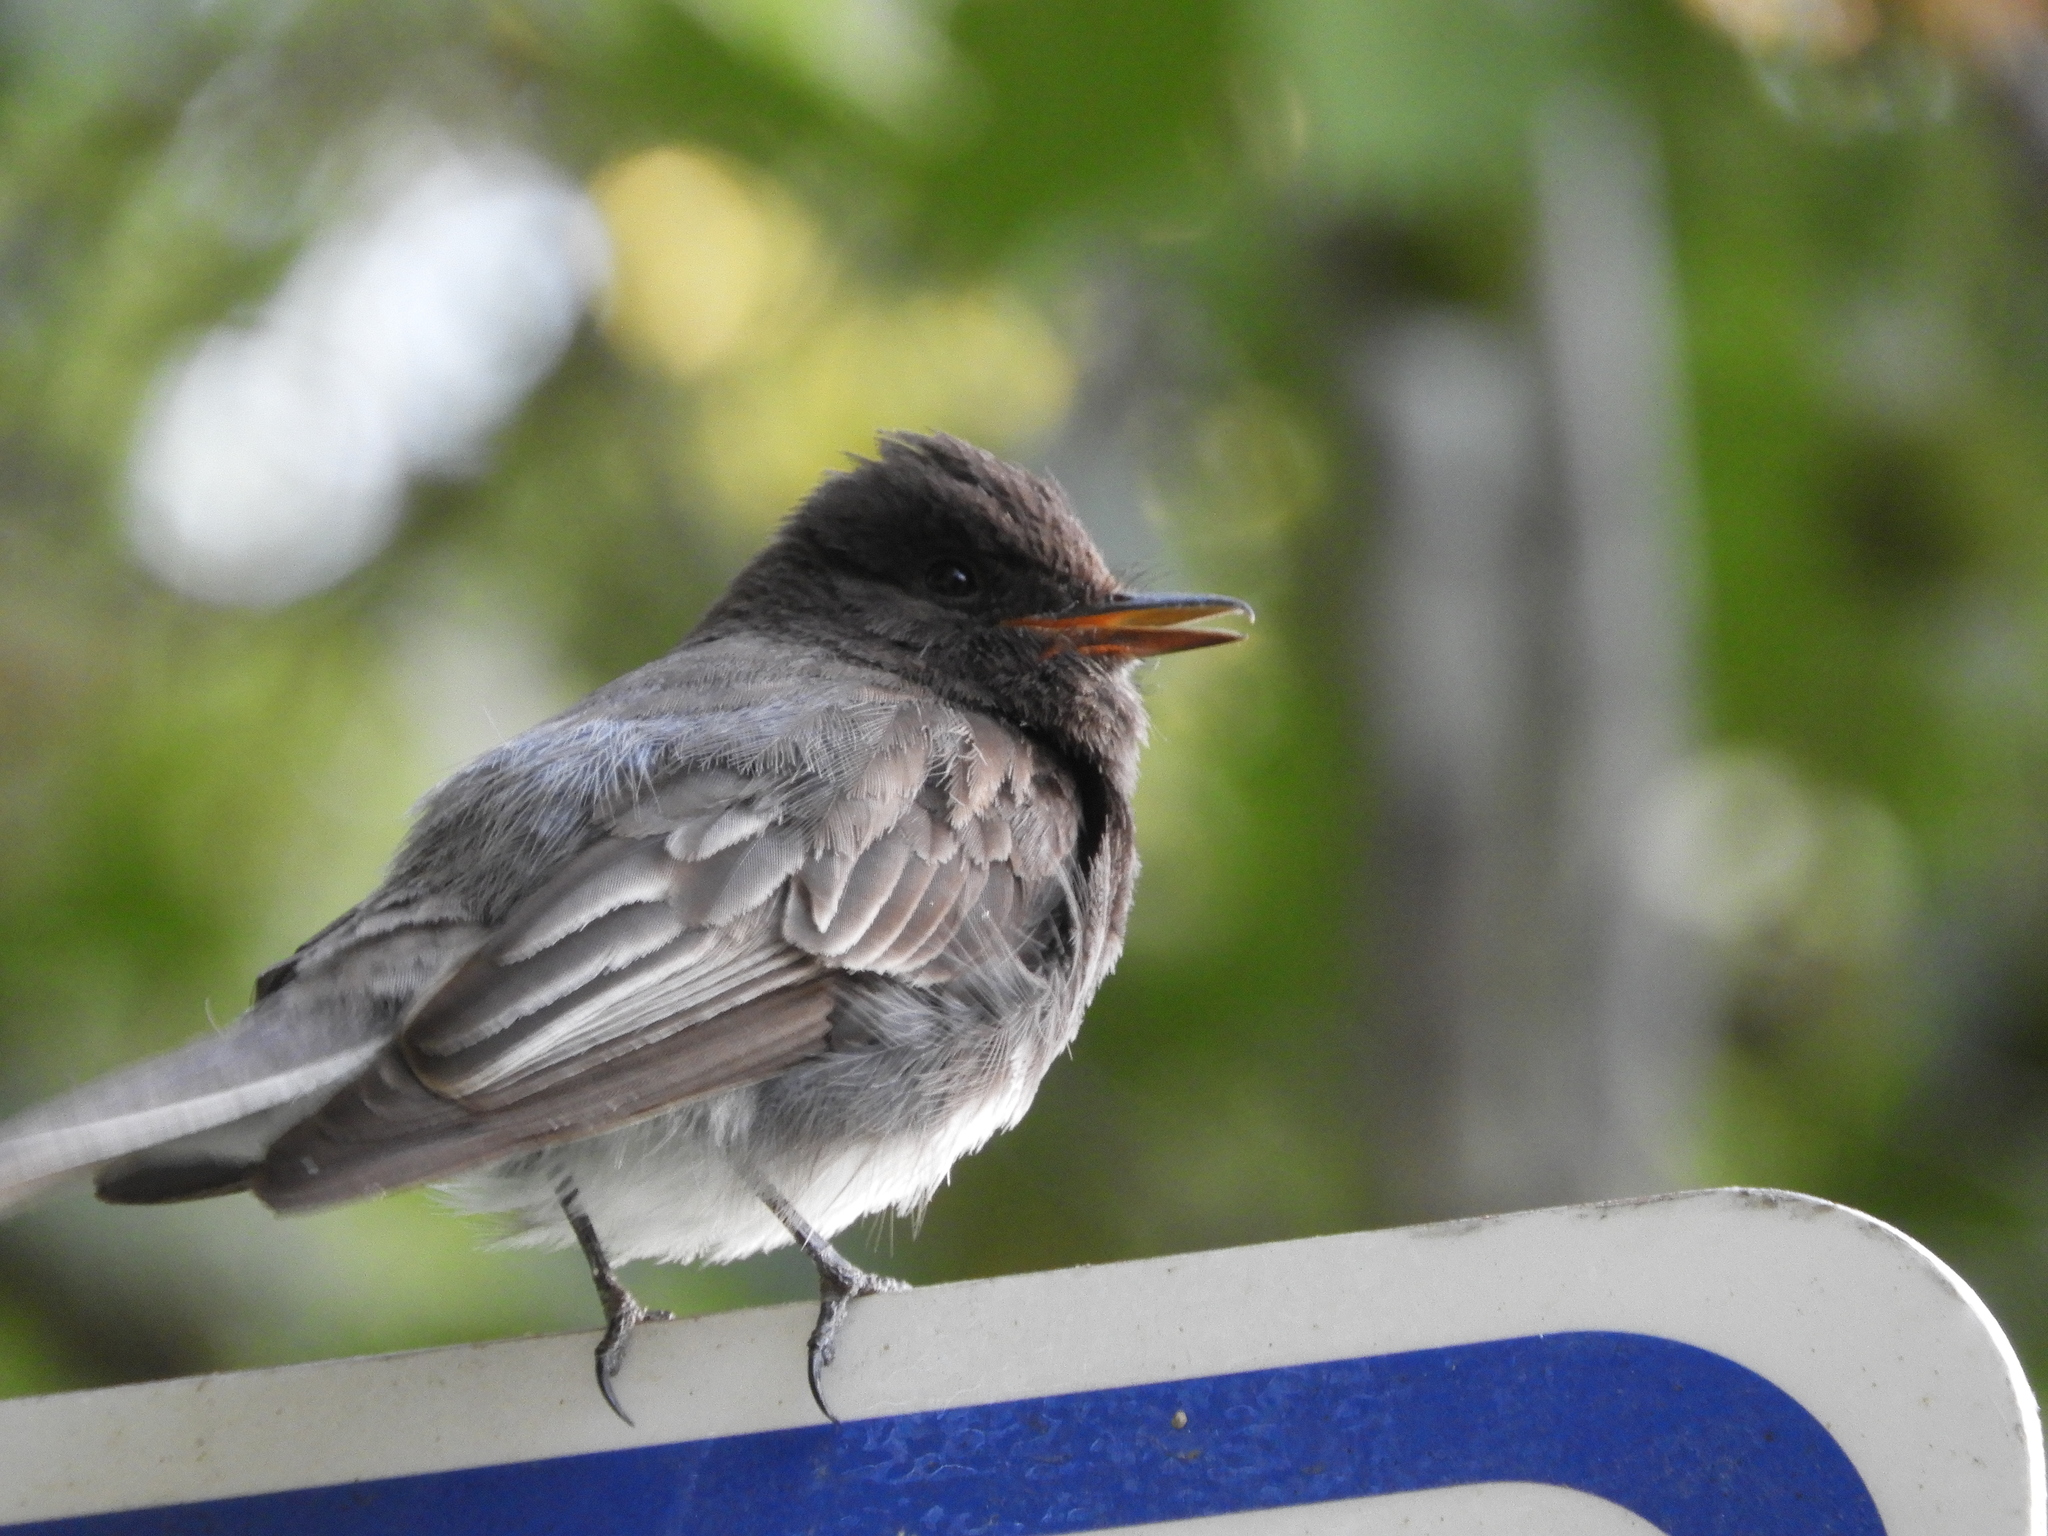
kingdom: Animalia
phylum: Chordata
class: Aves
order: Passeriformes
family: Tyrannidae
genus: Sayornis
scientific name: Sayornis nigricans
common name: Black phoebe
